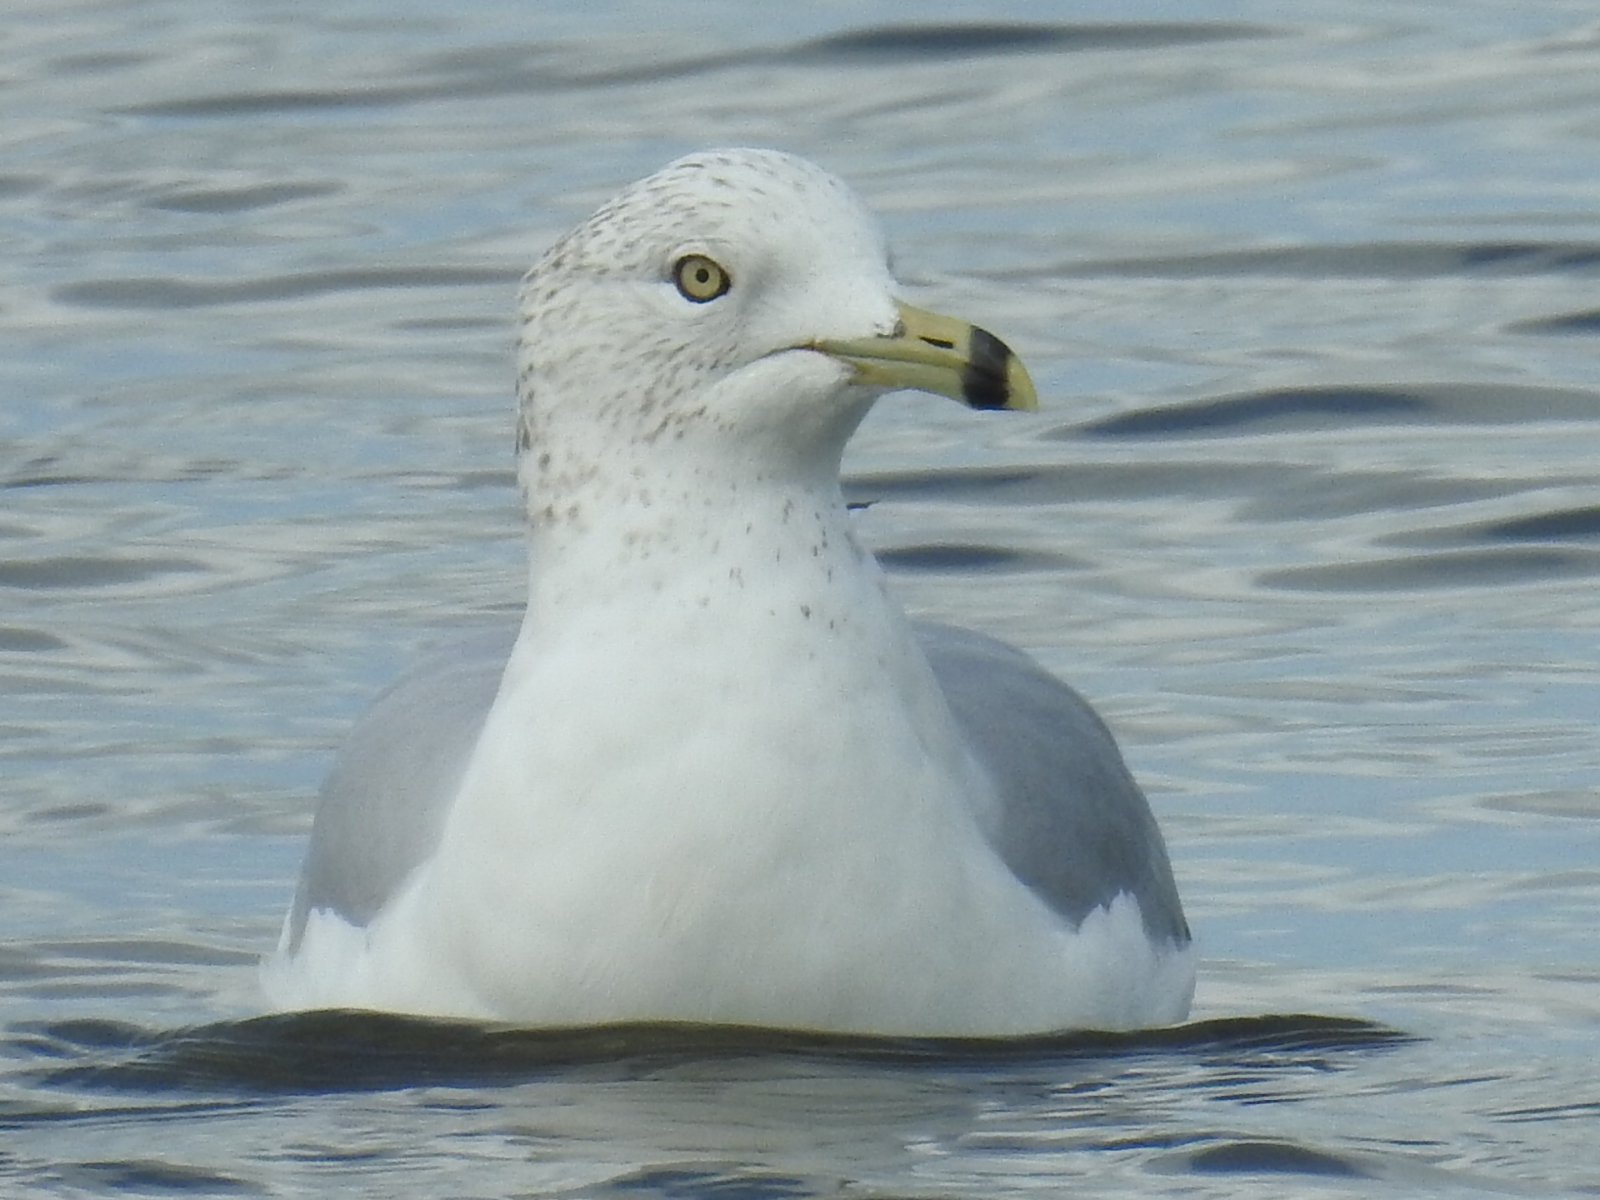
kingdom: Animalia
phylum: Chordata
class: Aves
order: Charadriiformes
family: Laridae
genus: Larus
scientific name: Larus delawarensis
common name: Ring-billed gull
